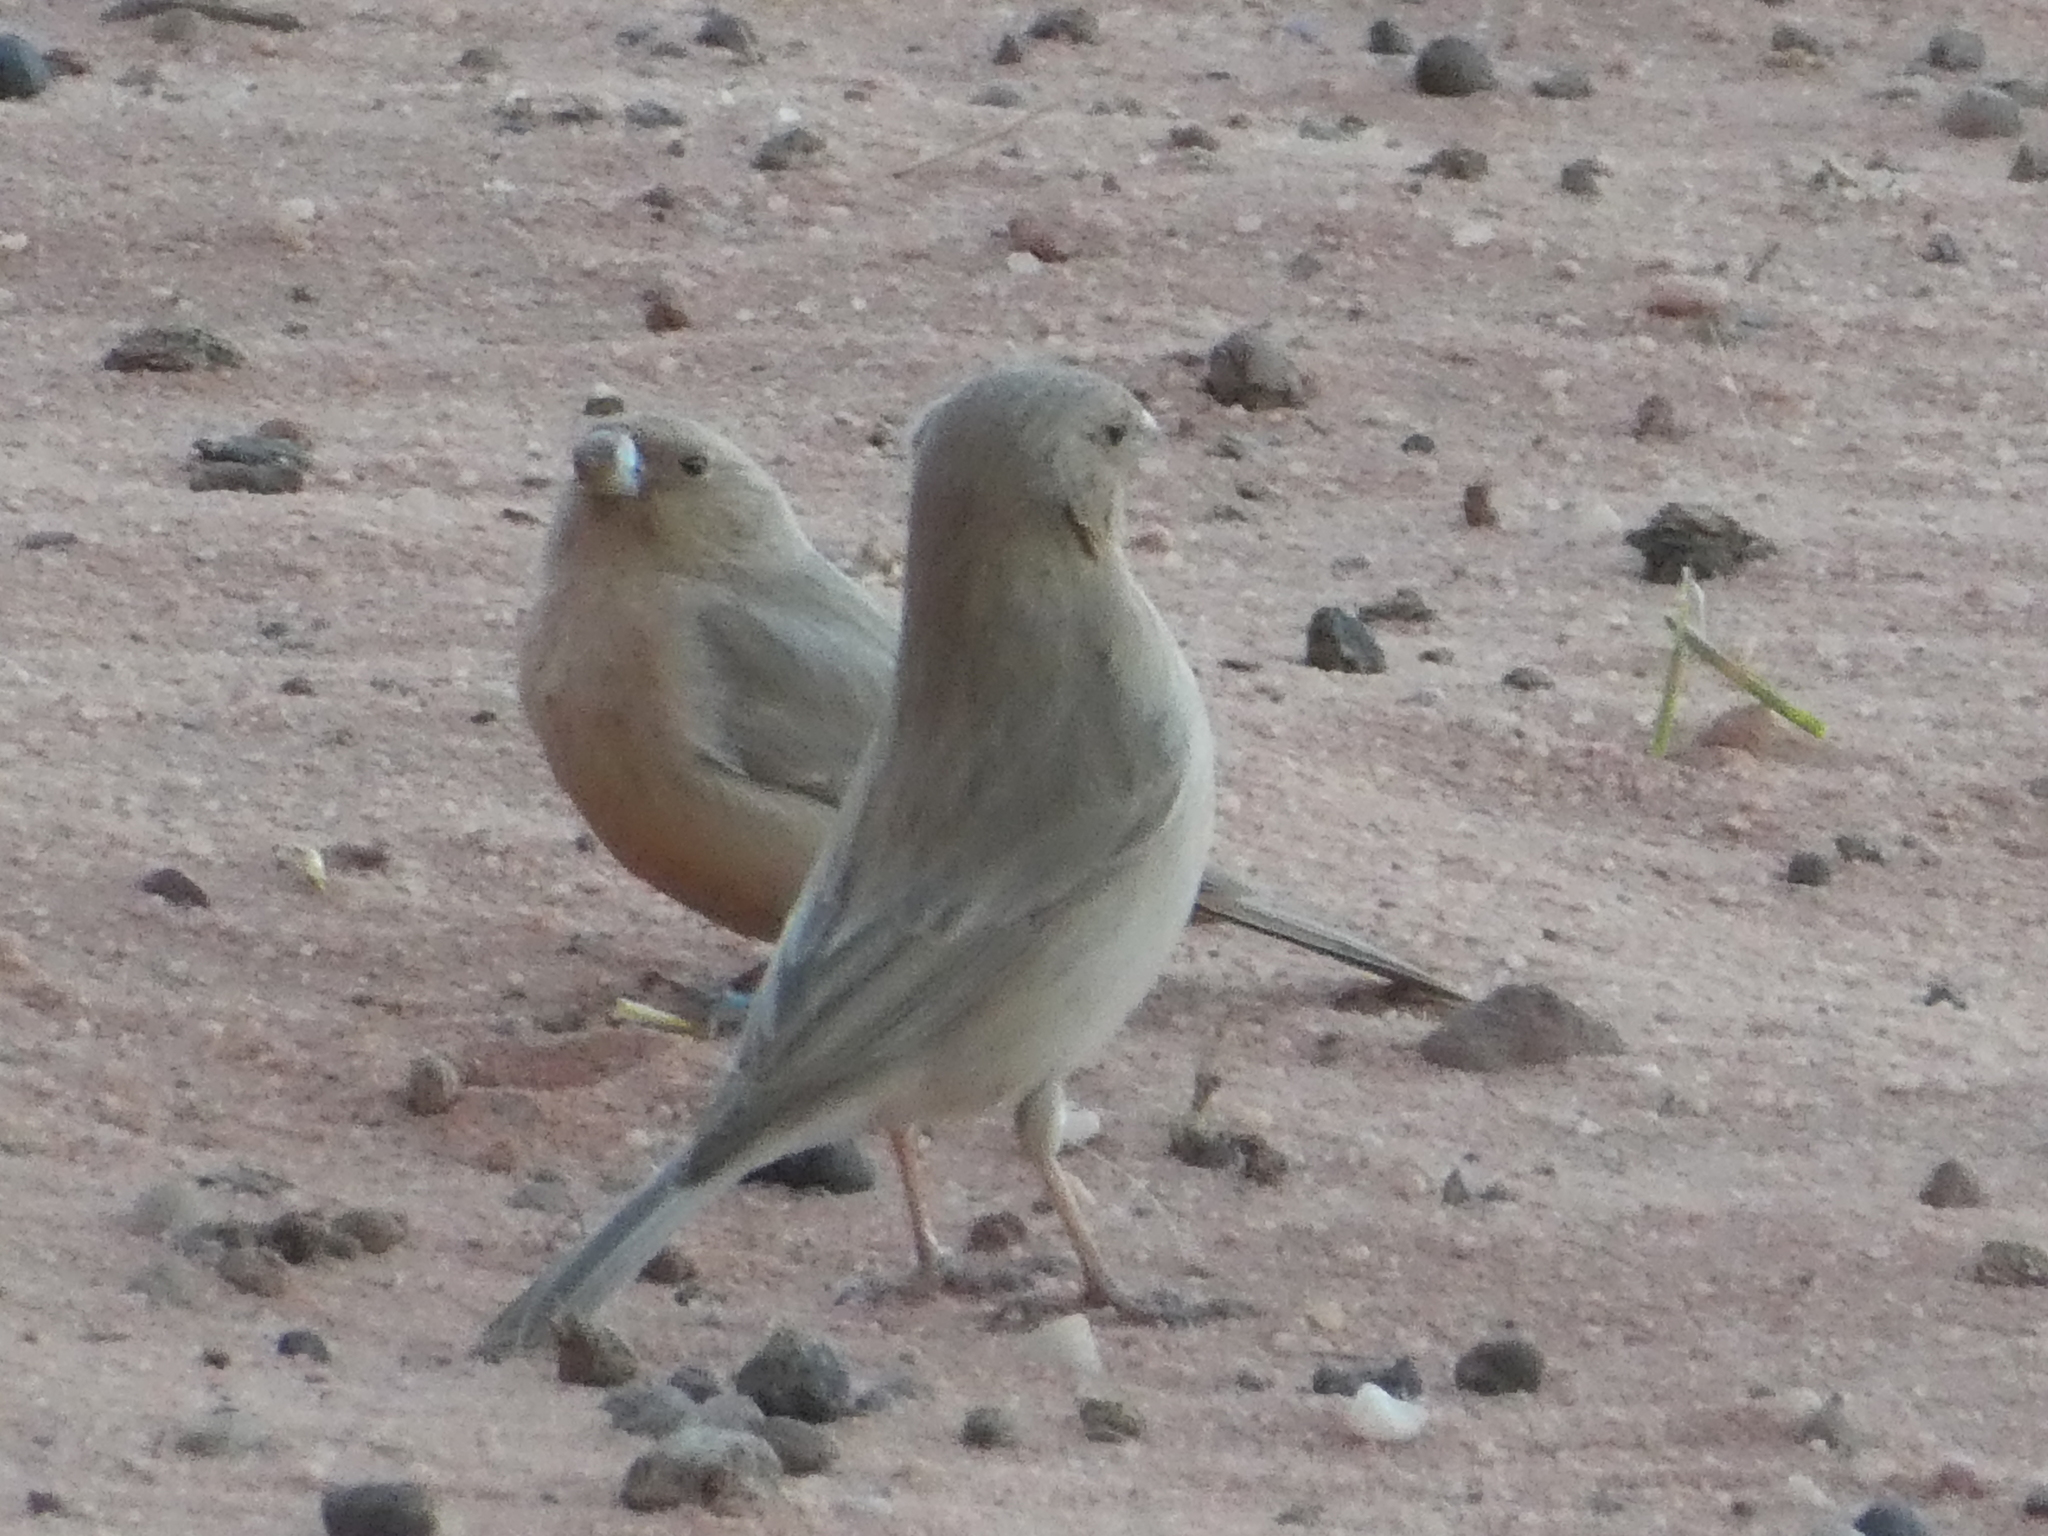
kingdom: Animalia
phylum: Chordata
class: Aves
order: Passeriformes
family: Fringillidae
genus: Carpodacus
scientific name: Carpodacus synoicus
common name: Sinai rosefinch
